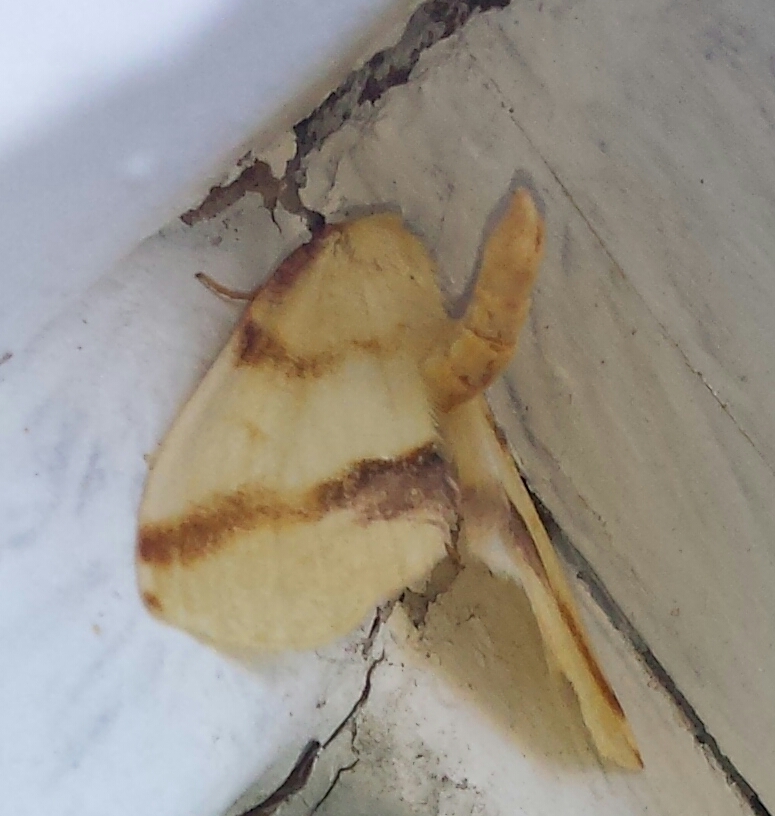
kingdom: Animalia
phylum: Arthropoda
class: Insecta
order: Lepidoptera
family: Geometridae
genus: Plagodis
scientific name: Plagodis serinaria
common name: Lemon plagodis
